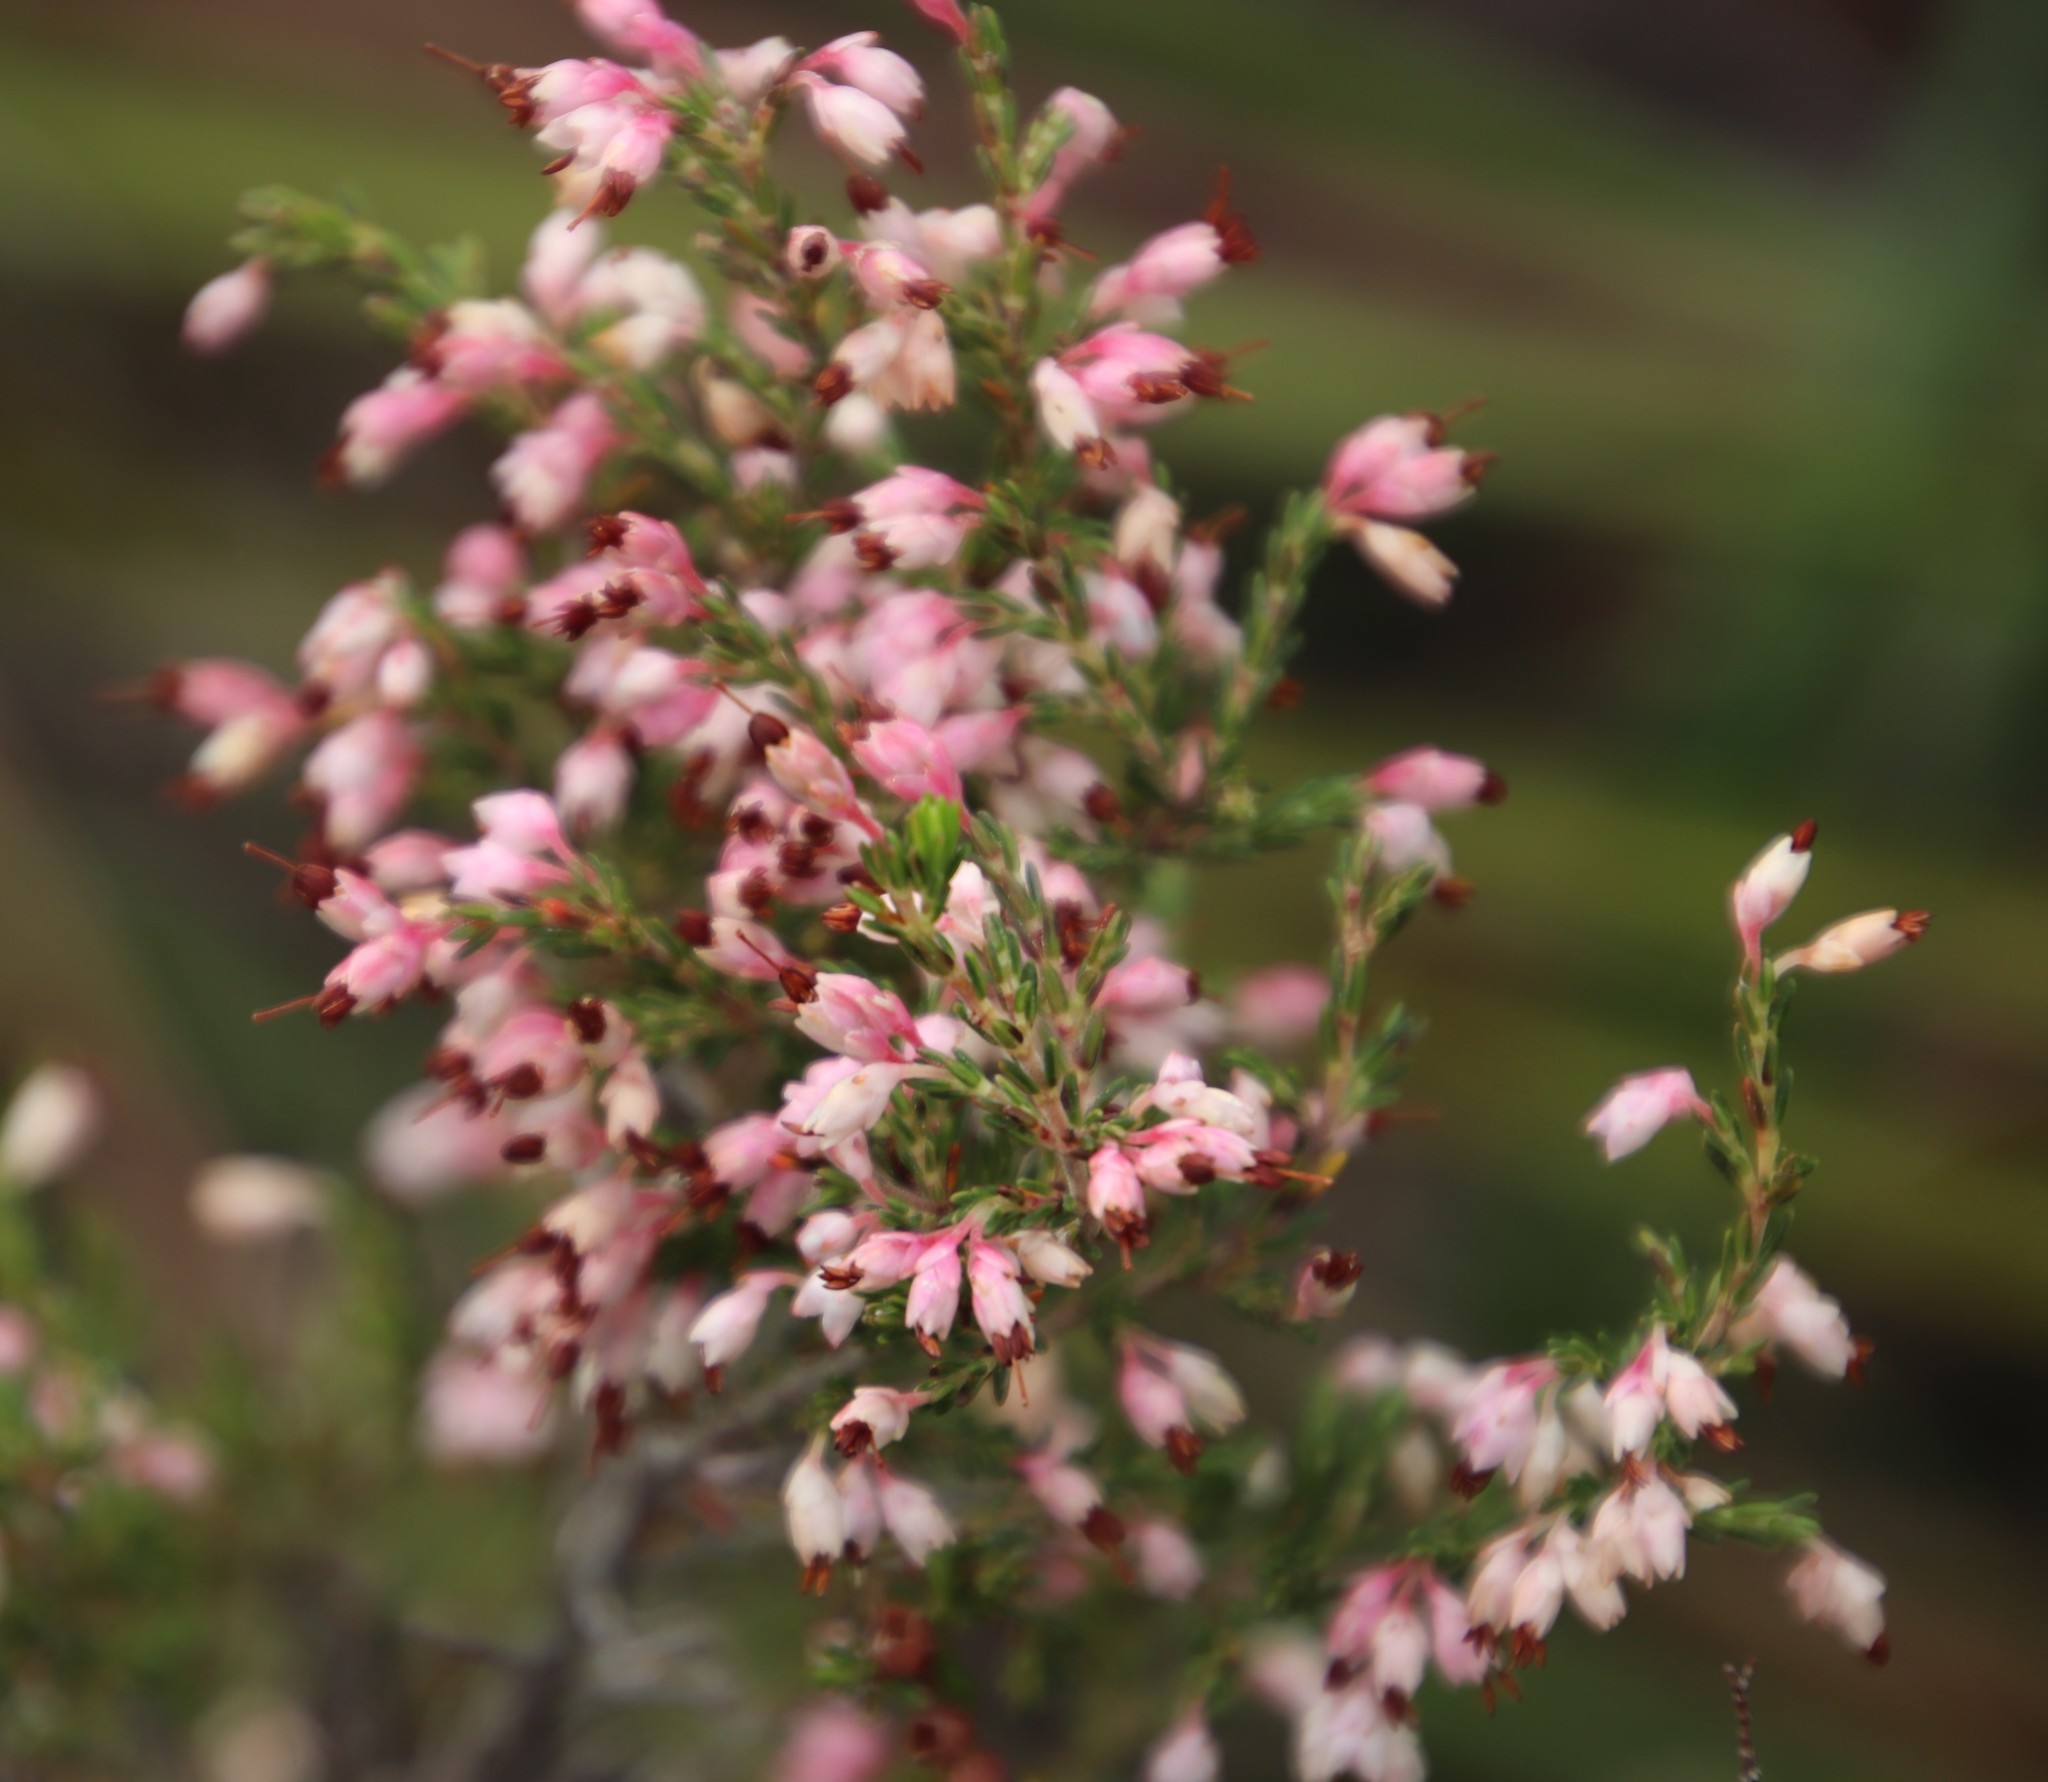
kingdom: Plantae
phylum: Tracheophyta
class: Magnoliopsida
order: Ericales
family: Ericaceae
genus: Erica
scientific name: Erica imbricata
